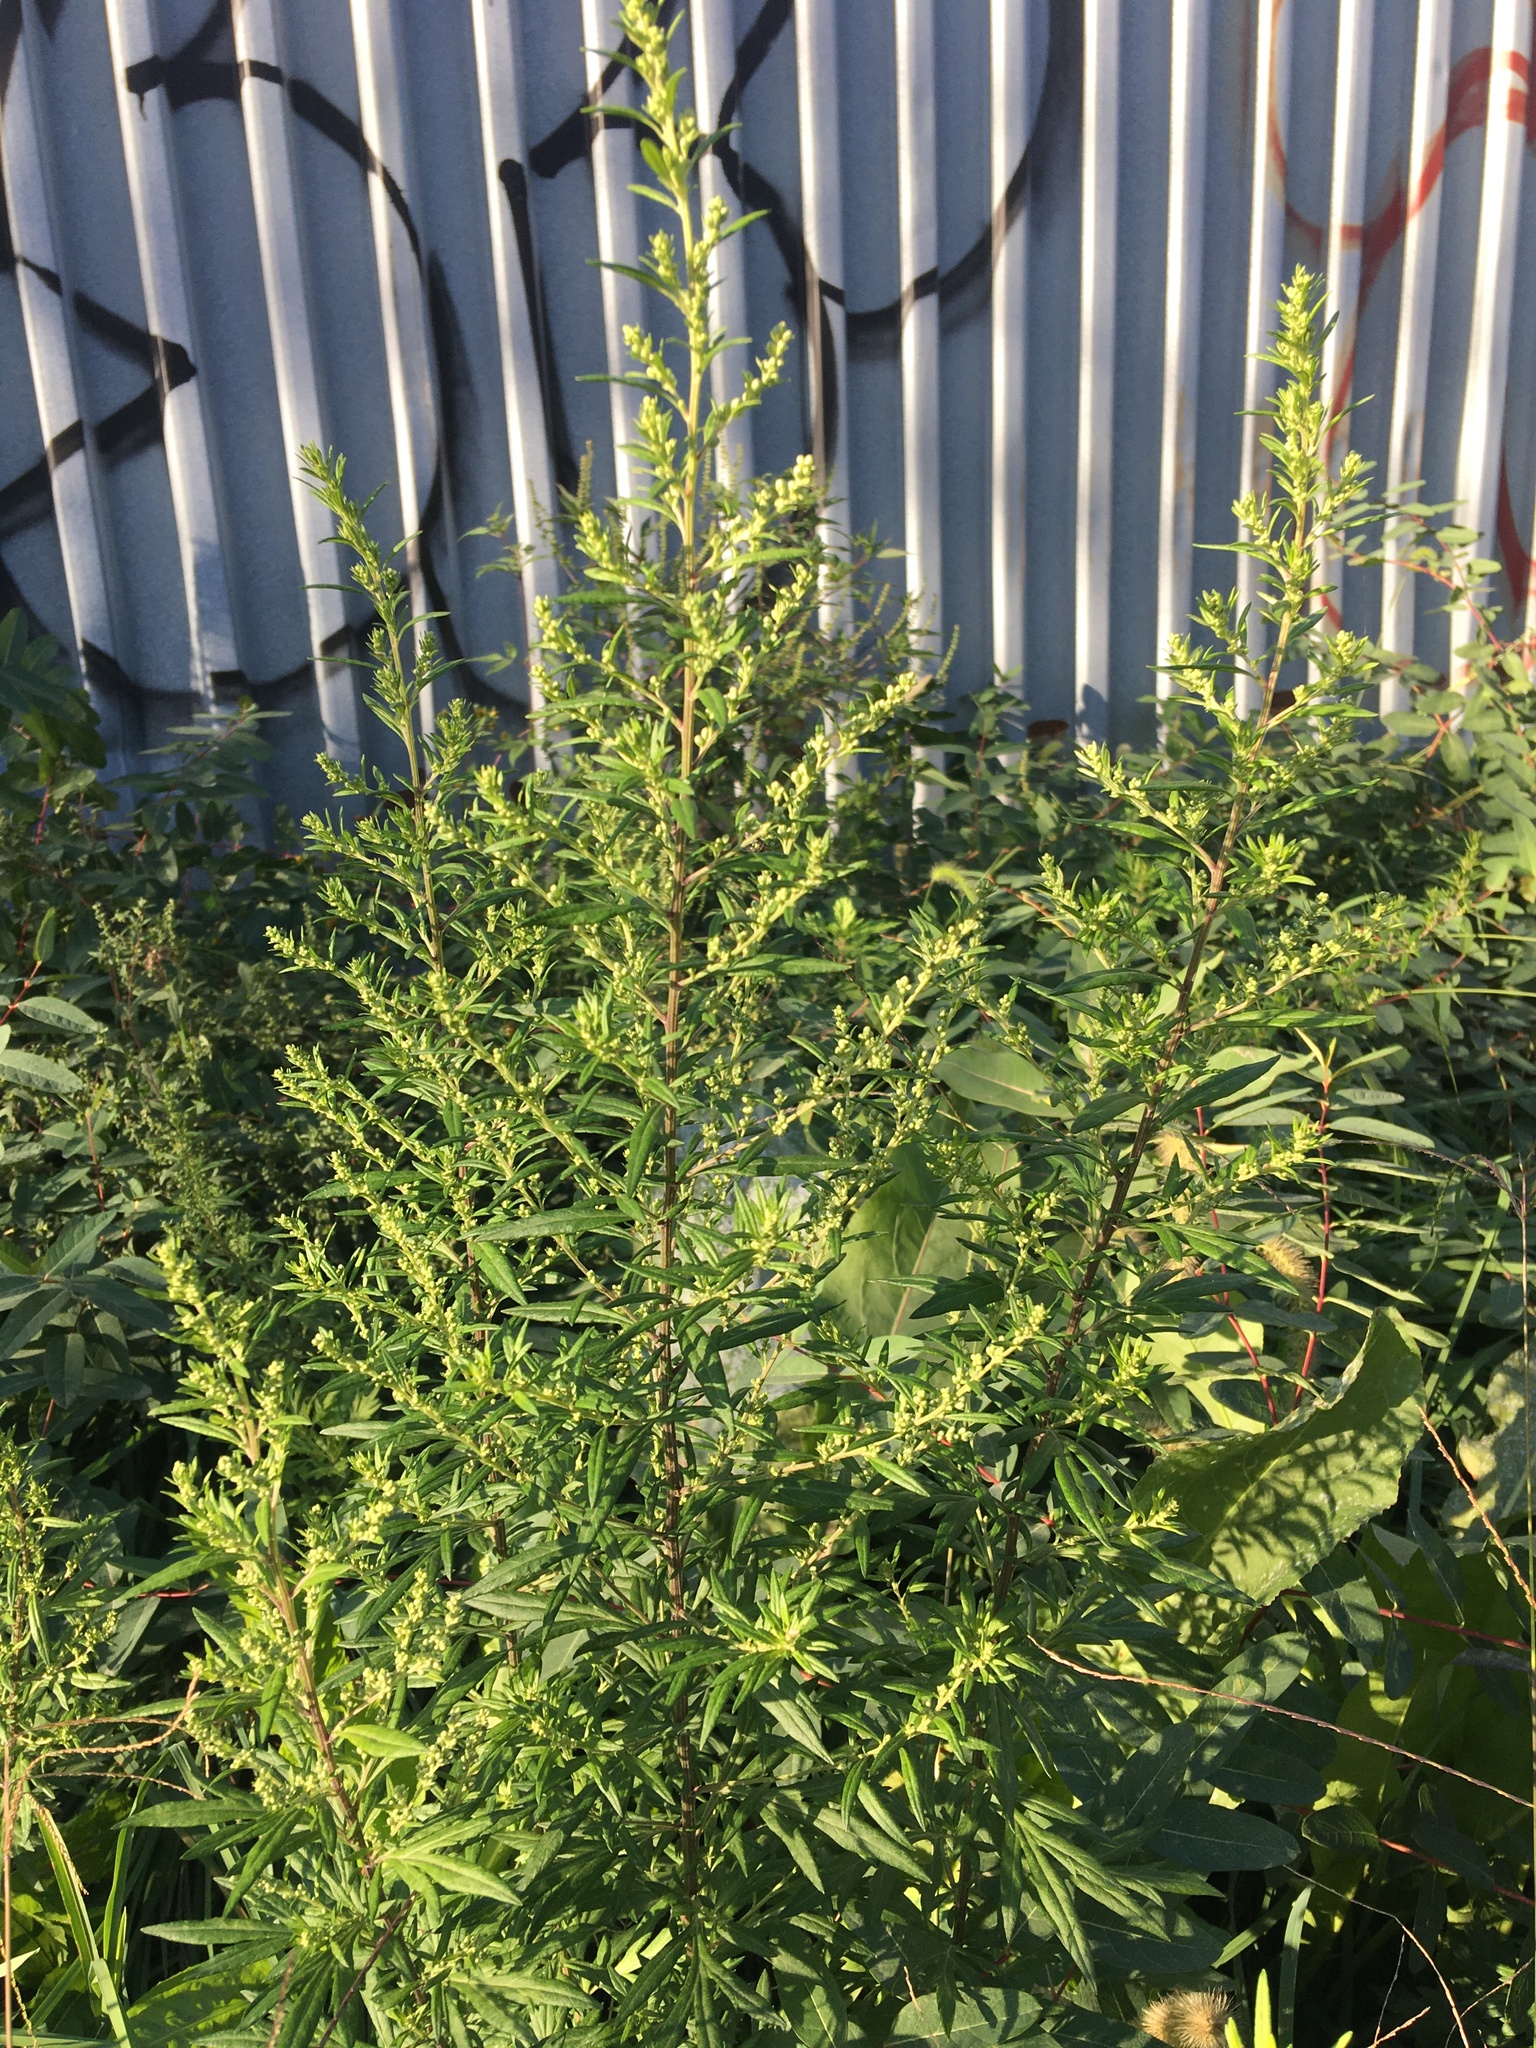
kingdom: Plantae
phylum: Tracheophyta
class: Magnoliopsida
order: Asterales
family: Asteraceae
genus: Artemisia
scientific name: Artemisia vulgaris
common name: Mugwort
